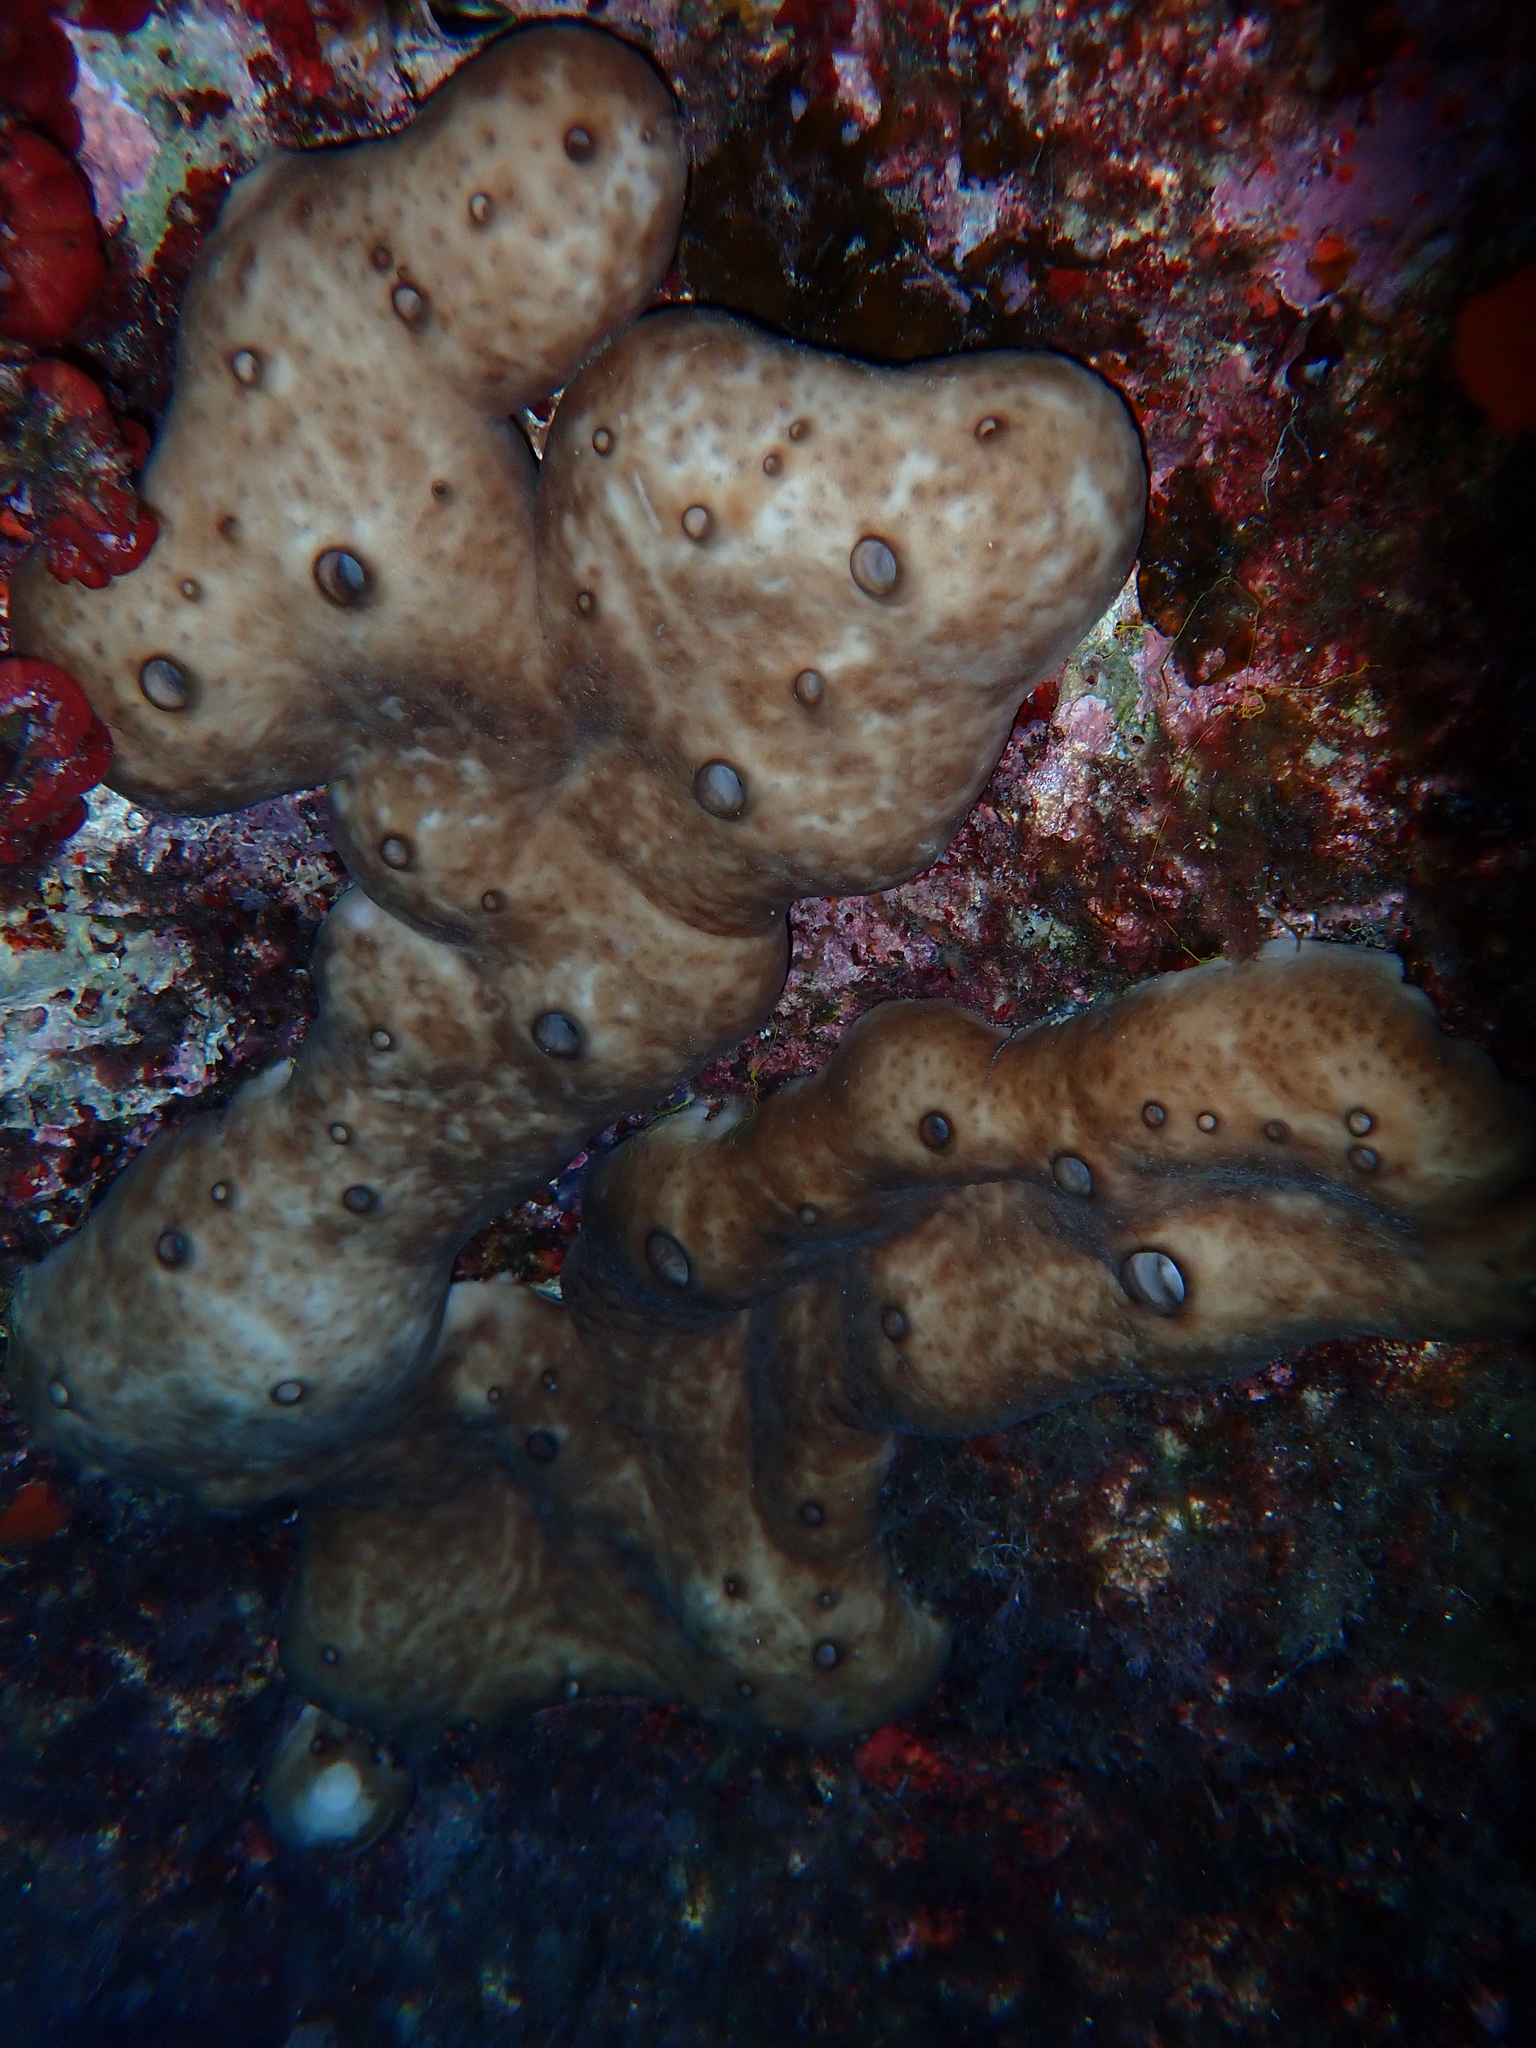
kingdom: Animalia
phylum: Porifera
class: Demospongiae
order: Chondrosiida
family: Chondrosiidae
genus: Chondrosia
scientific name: Chondrosia reniformis
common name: Chicken liver sponge
